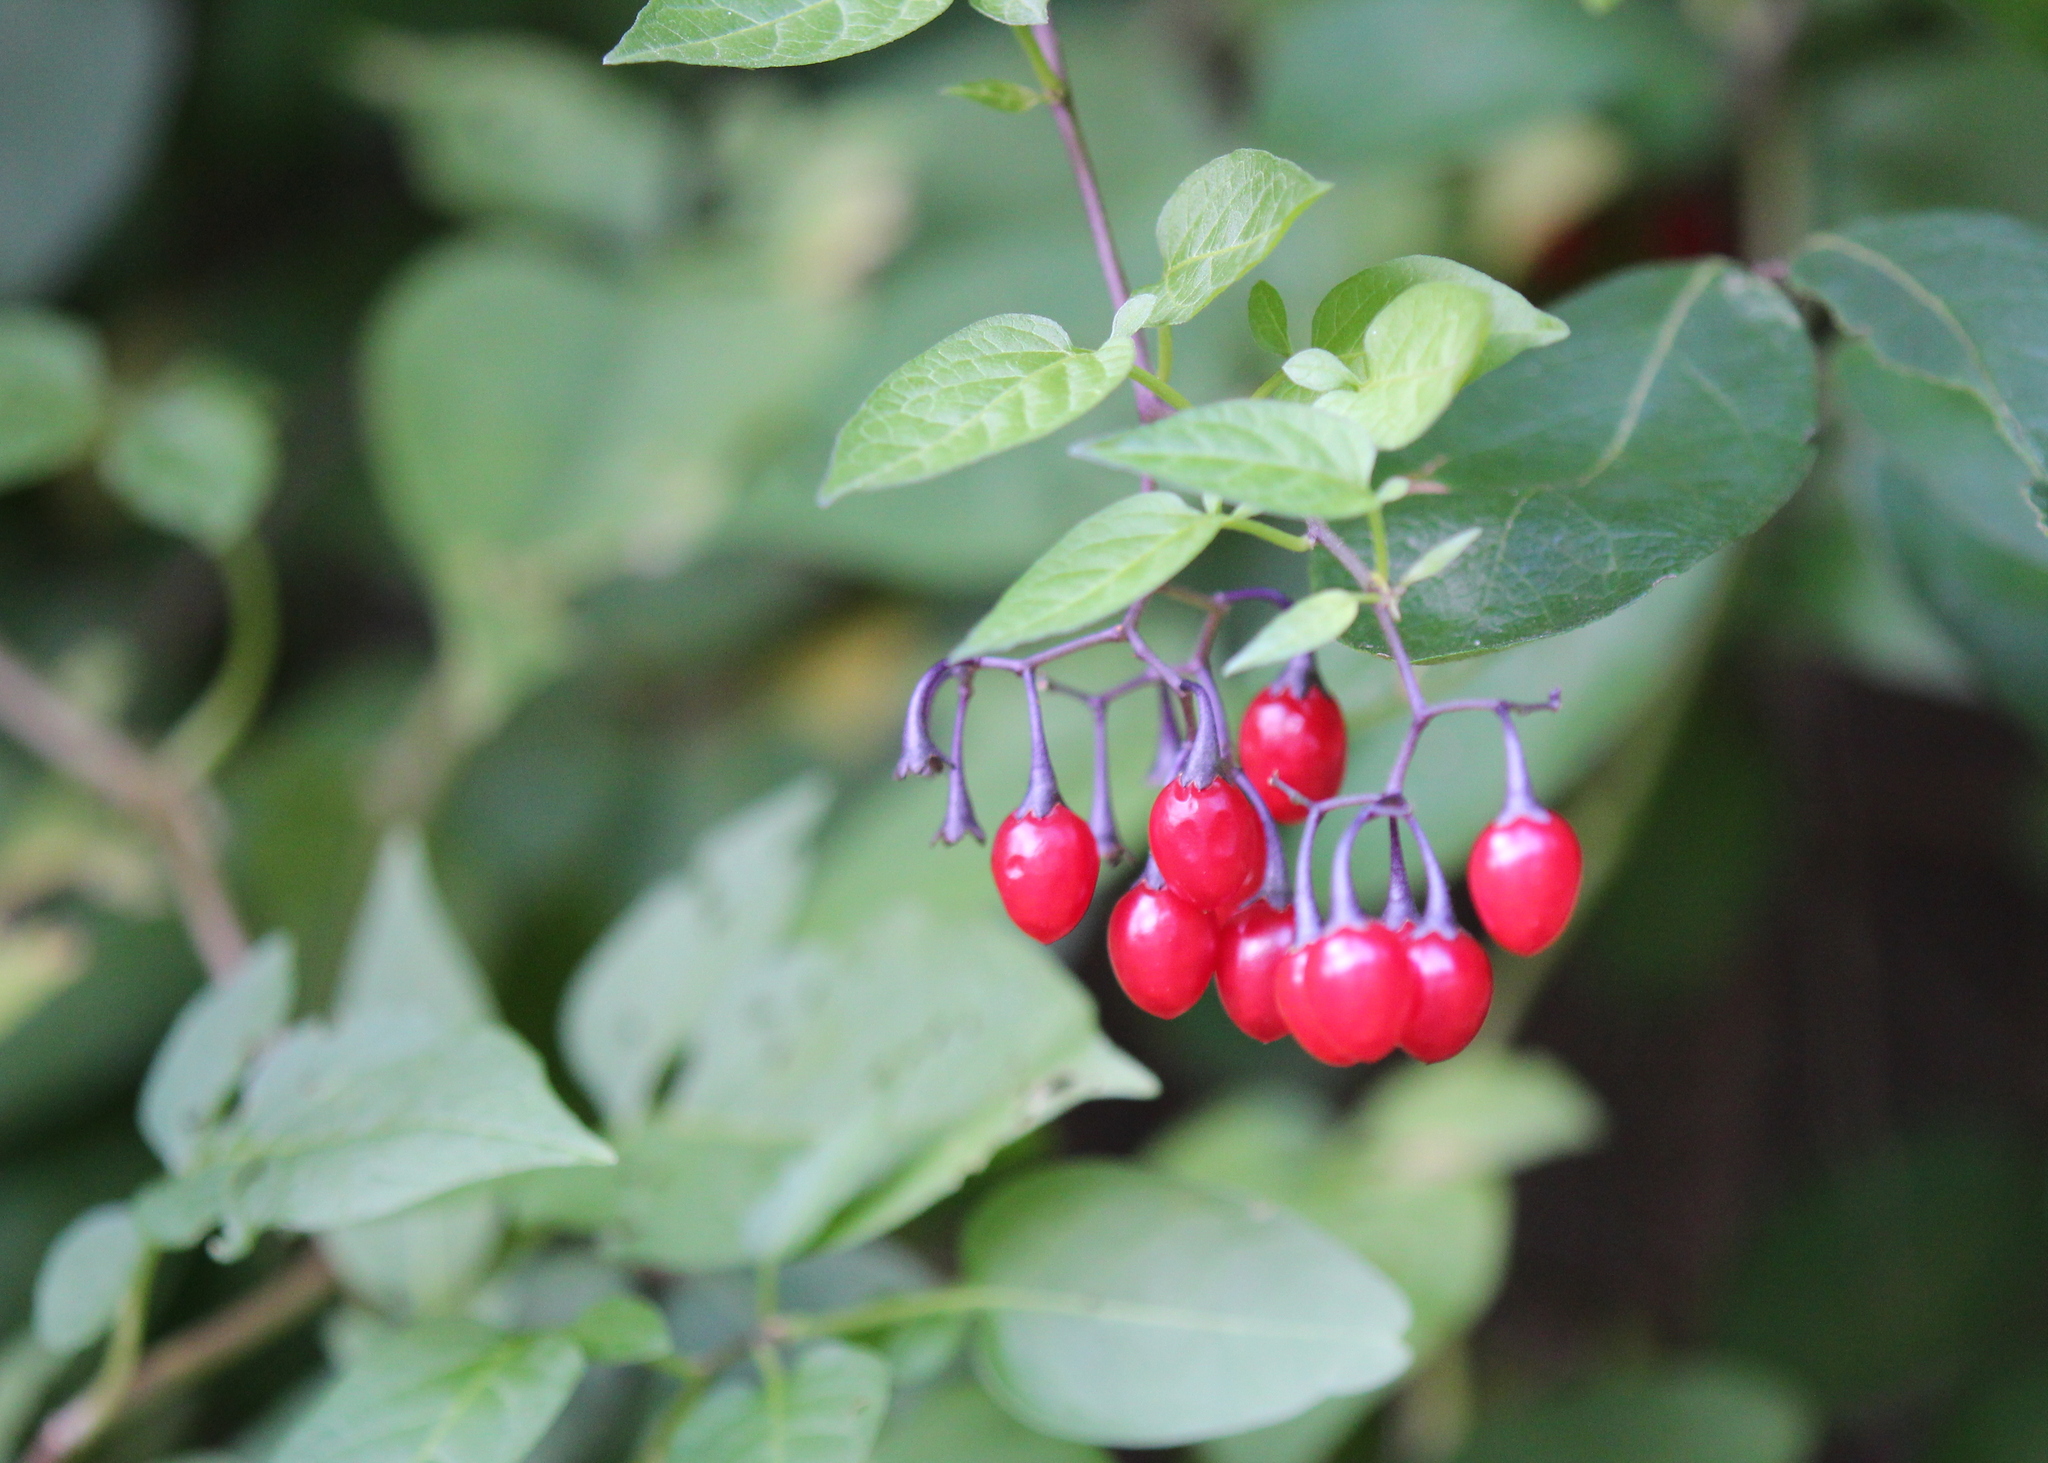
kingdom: Plantae
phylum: Tracheophyta
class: Magnoliopsida
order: Solanales
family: Solanaceae
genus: Solanum
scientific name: Solanum dulcamara
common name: Climbing nightshade
